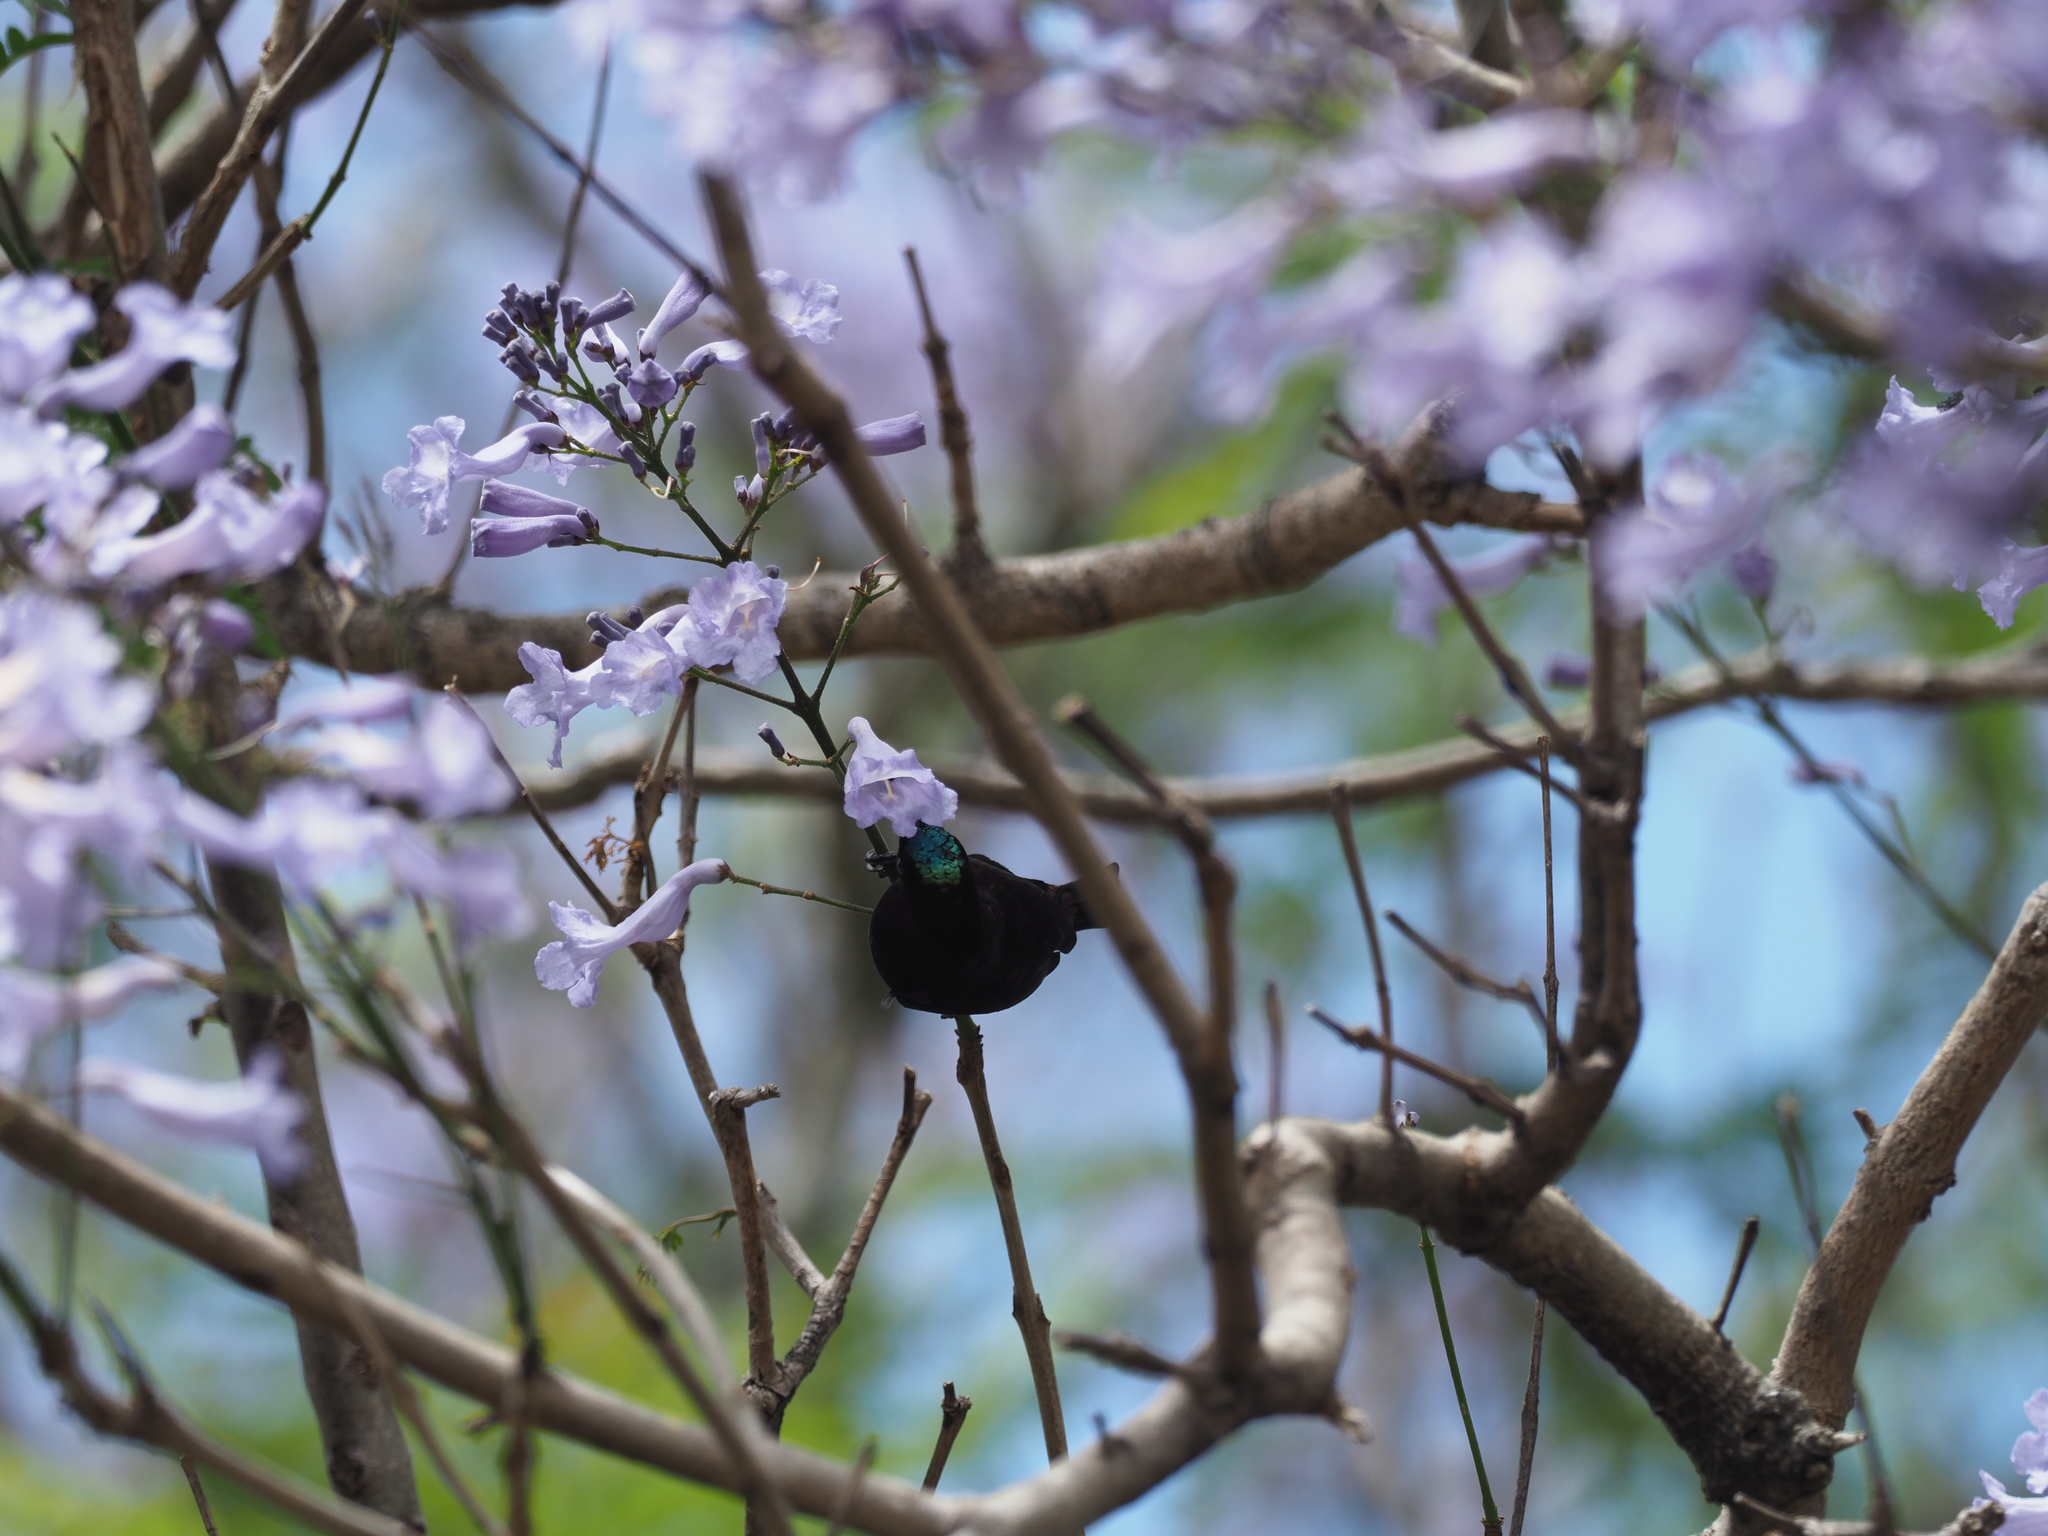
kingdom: Animalia
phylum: Chordata
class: Aves
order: Passeriformes
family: Nectariniidae
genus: Chalcomitra
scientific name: Chalcomitra amethystina
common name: Amethyst sunbird
